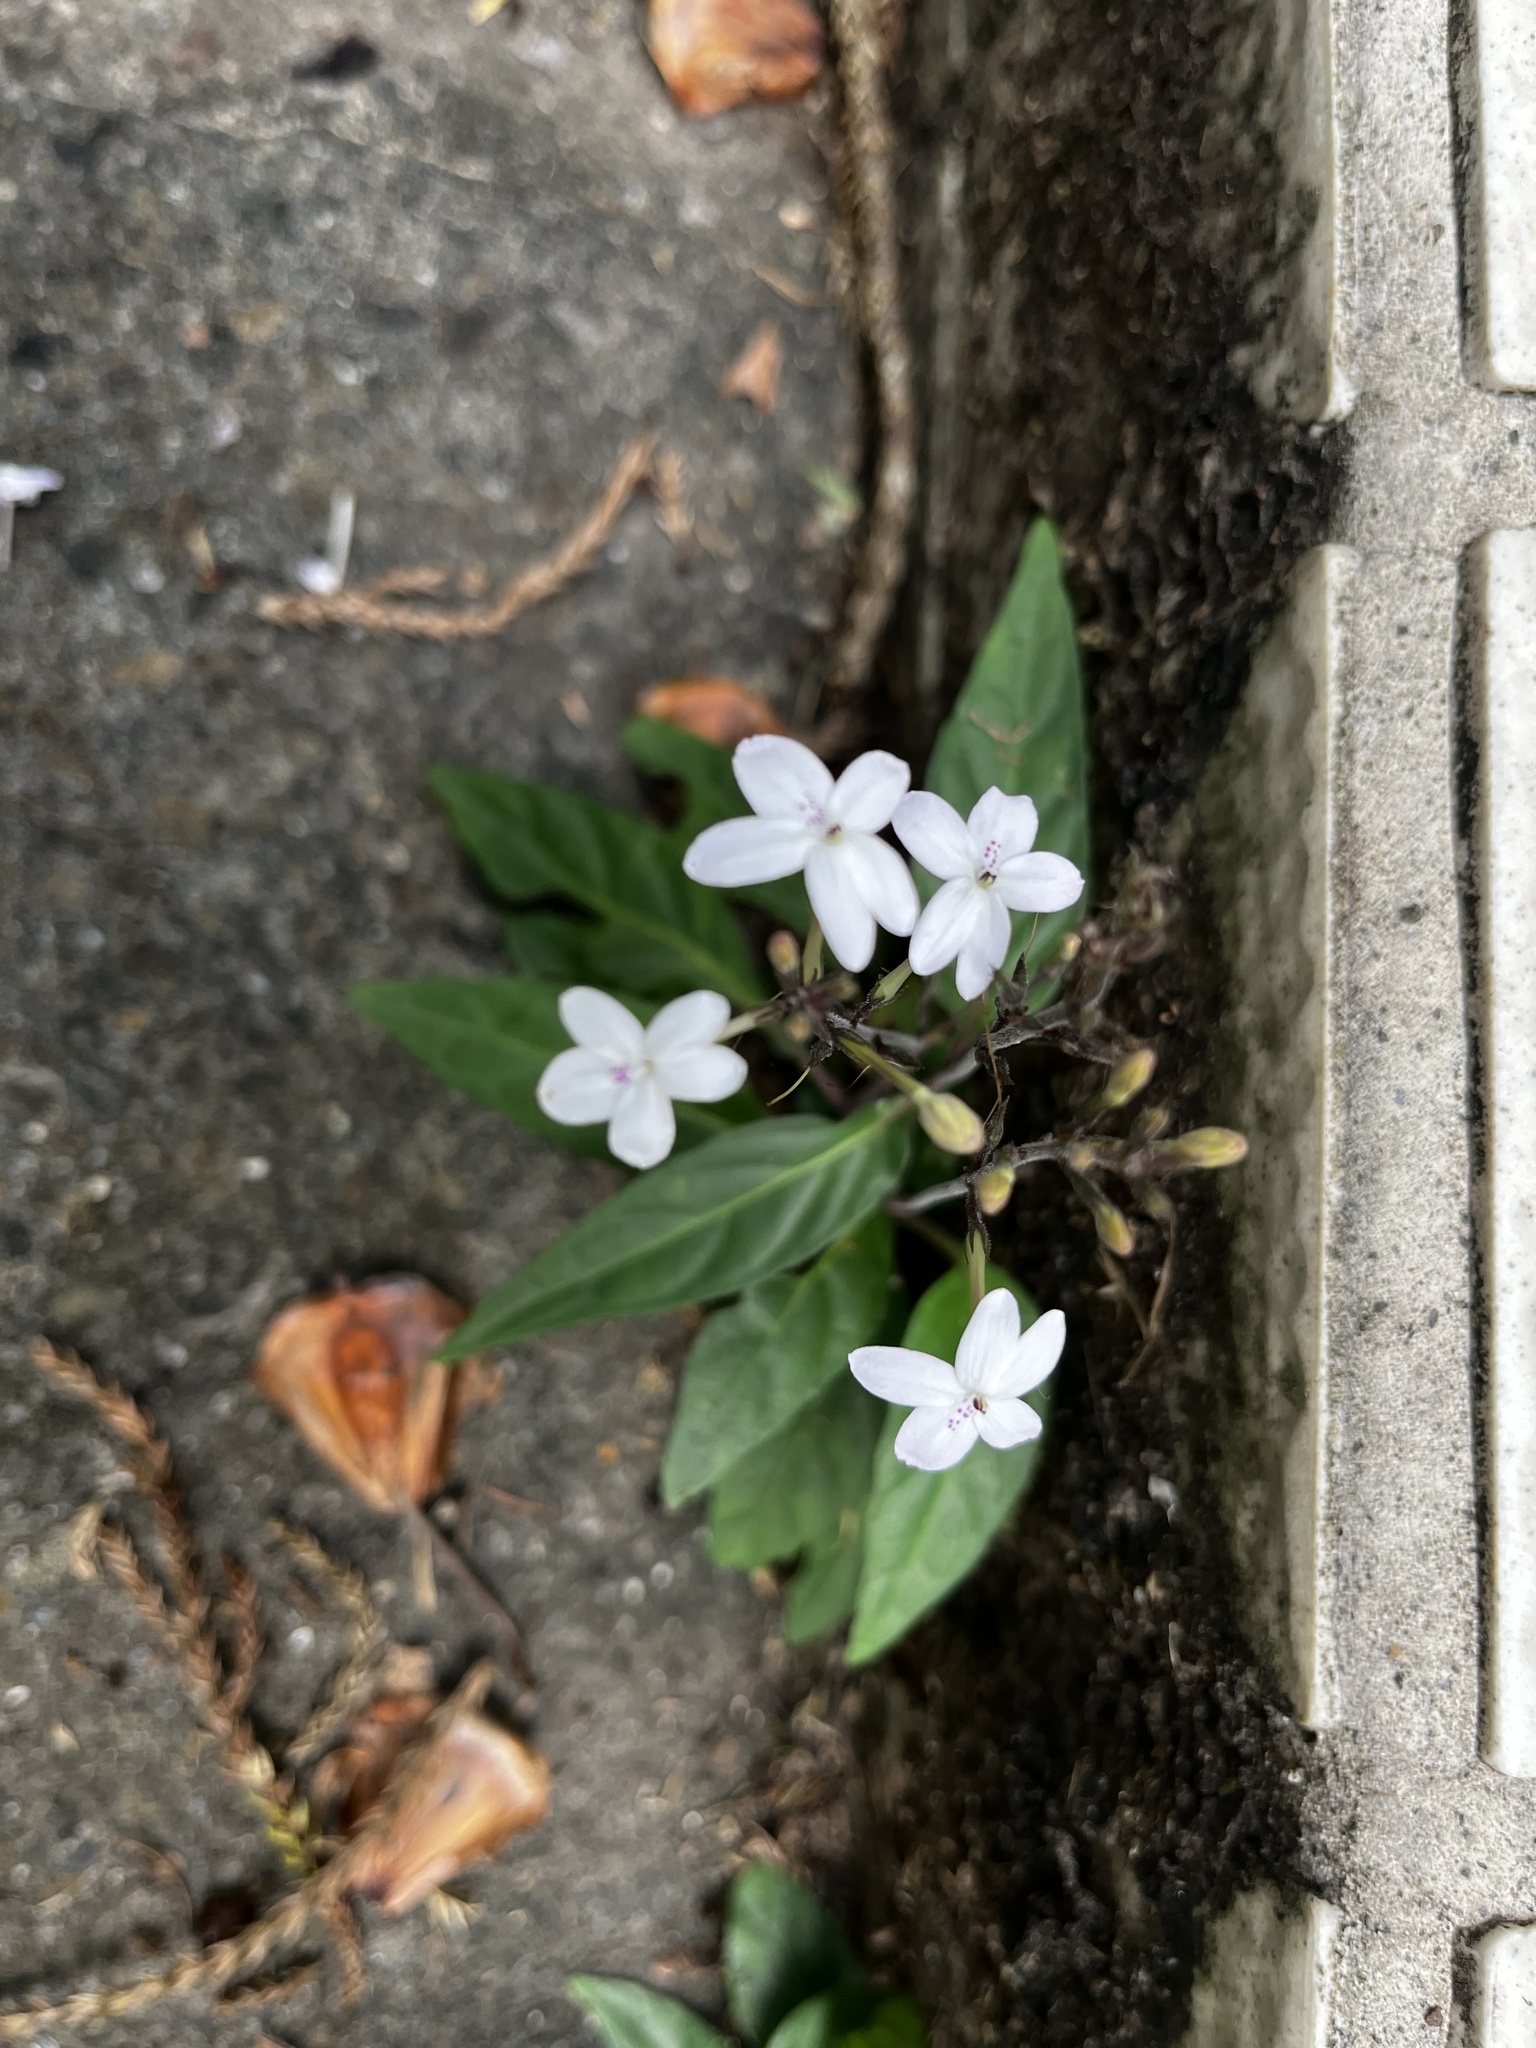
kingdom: Plantae
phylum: Tracheophyta
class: Magnoliopsida
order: Lamiales
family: Acanthaceae
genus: Pseuderanthemum
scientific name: Pseuderanthemum variabile
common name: Night and afternoon
